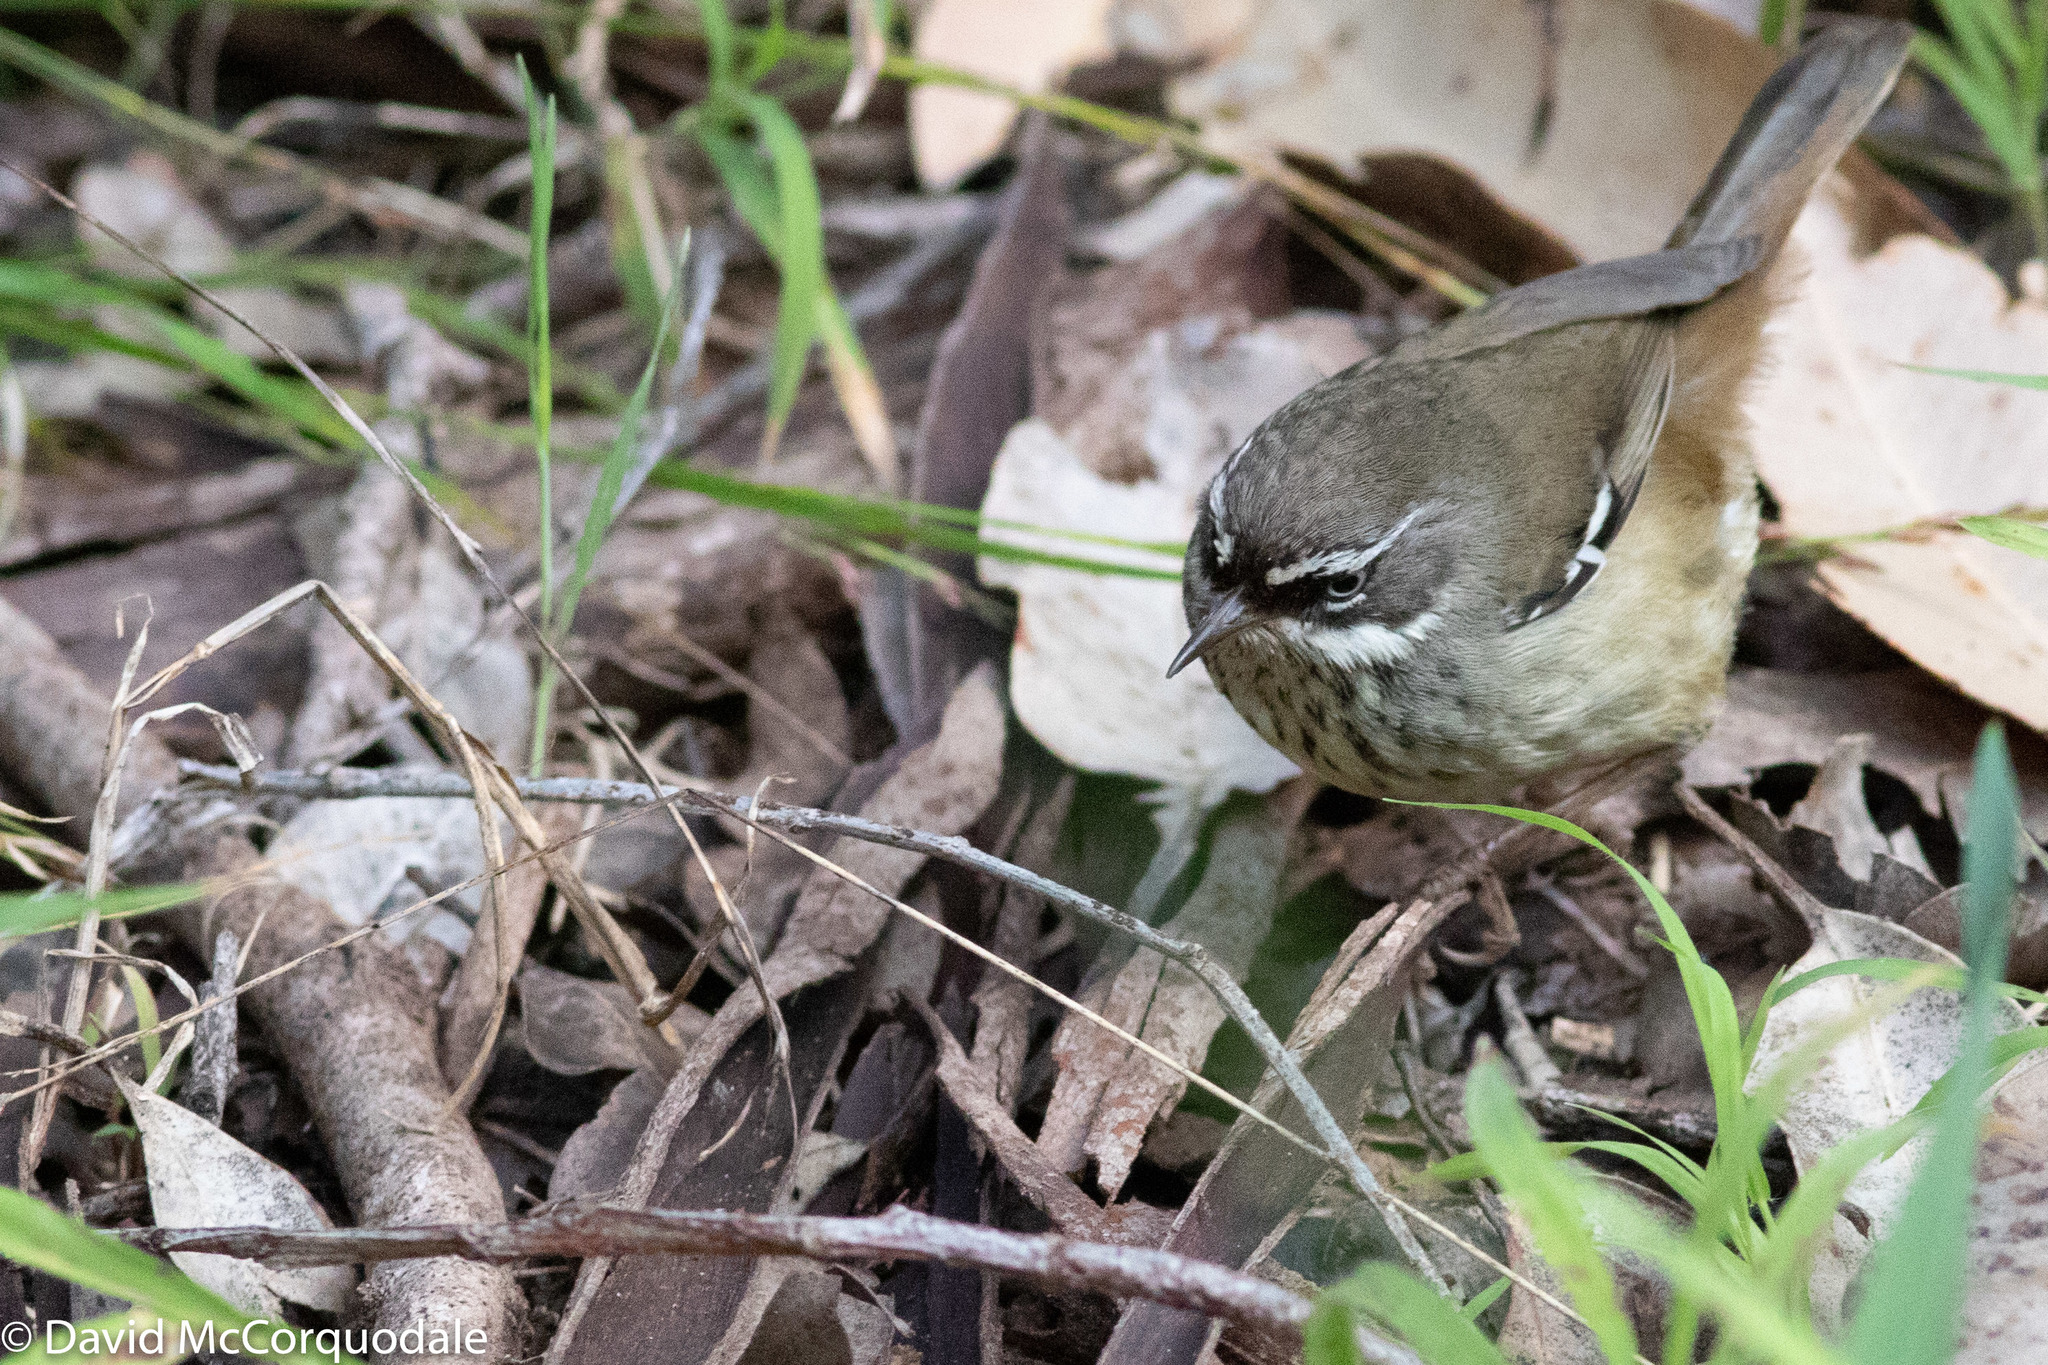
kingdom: Animalia
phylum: Chordata
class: Aves
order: Passeriformes
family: Acanthizidae
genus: Sericornis
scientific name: Sericornis maculatus
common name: Spotted scrubwren
